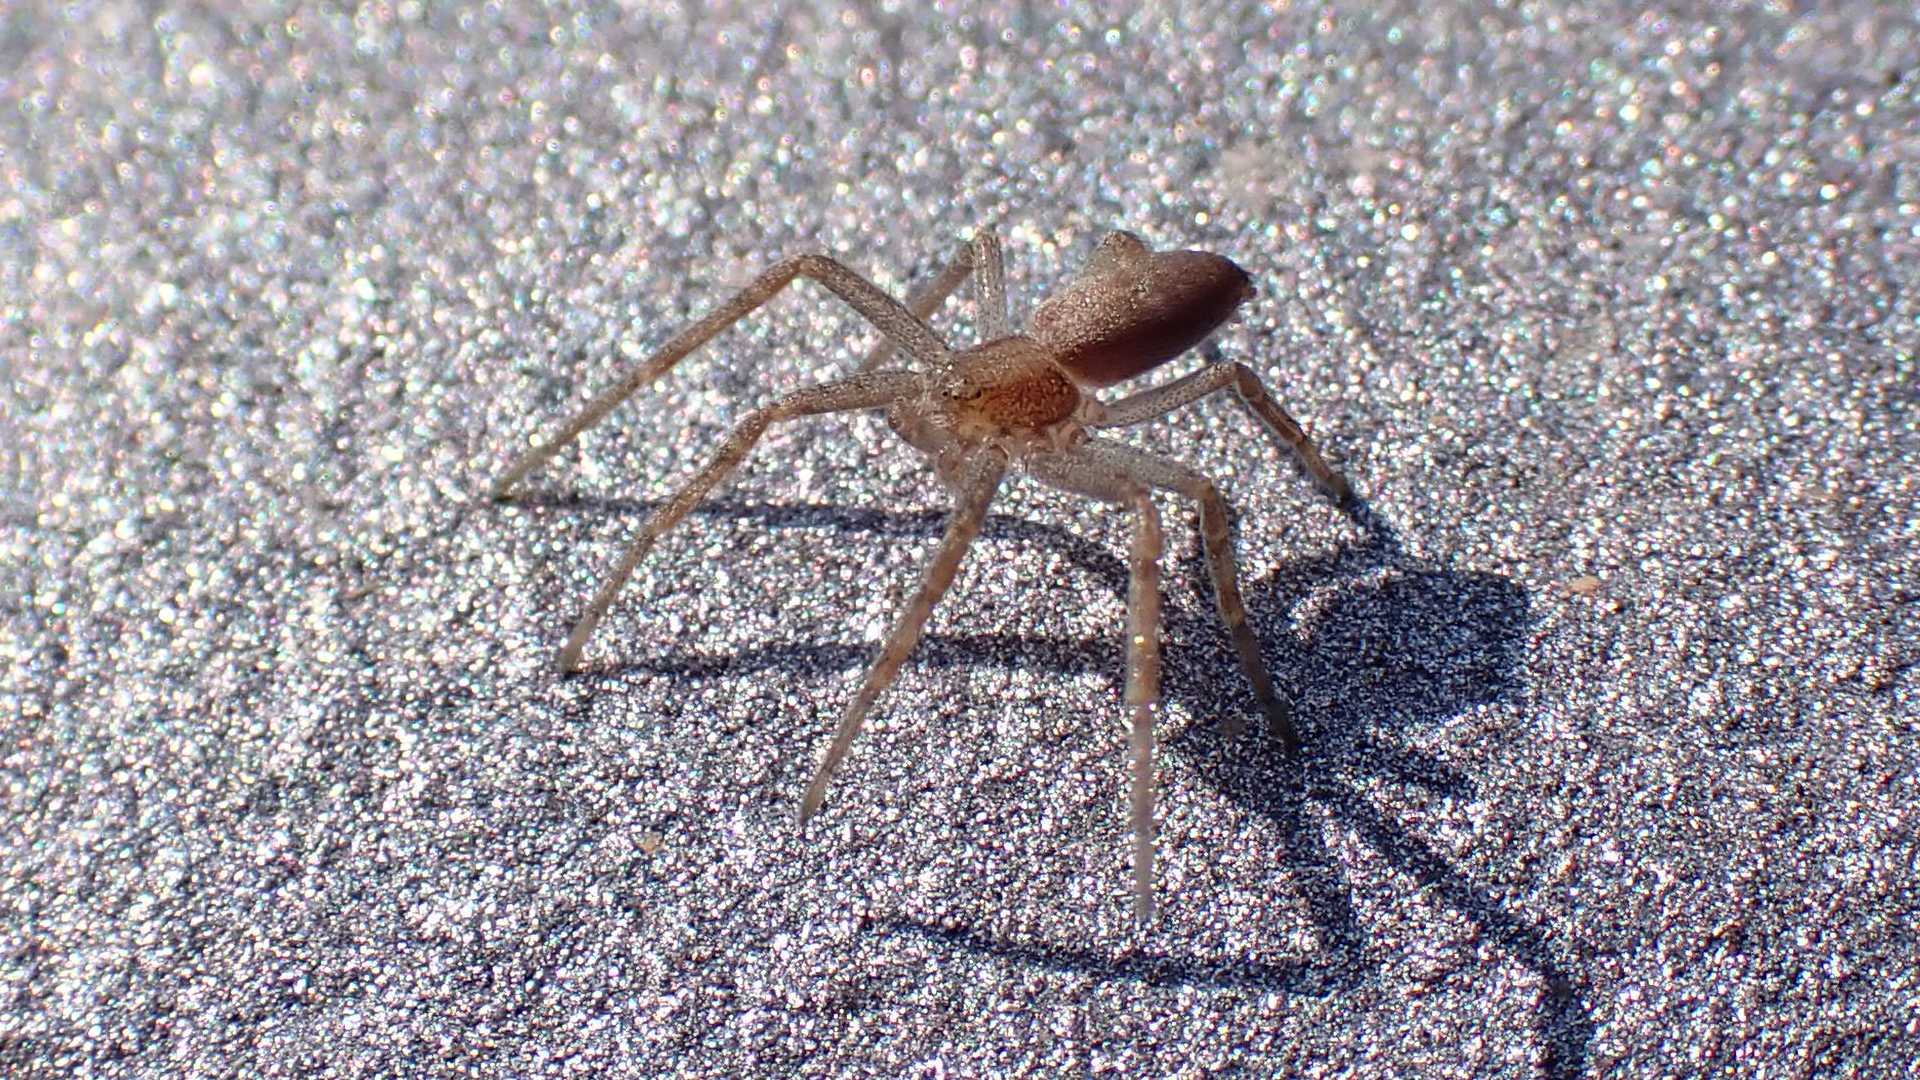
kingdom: Animalia
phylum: Arthropoda
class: Arachnida
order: Araneae
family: Philodromidae
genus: Philodromus
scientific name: Philodromus
